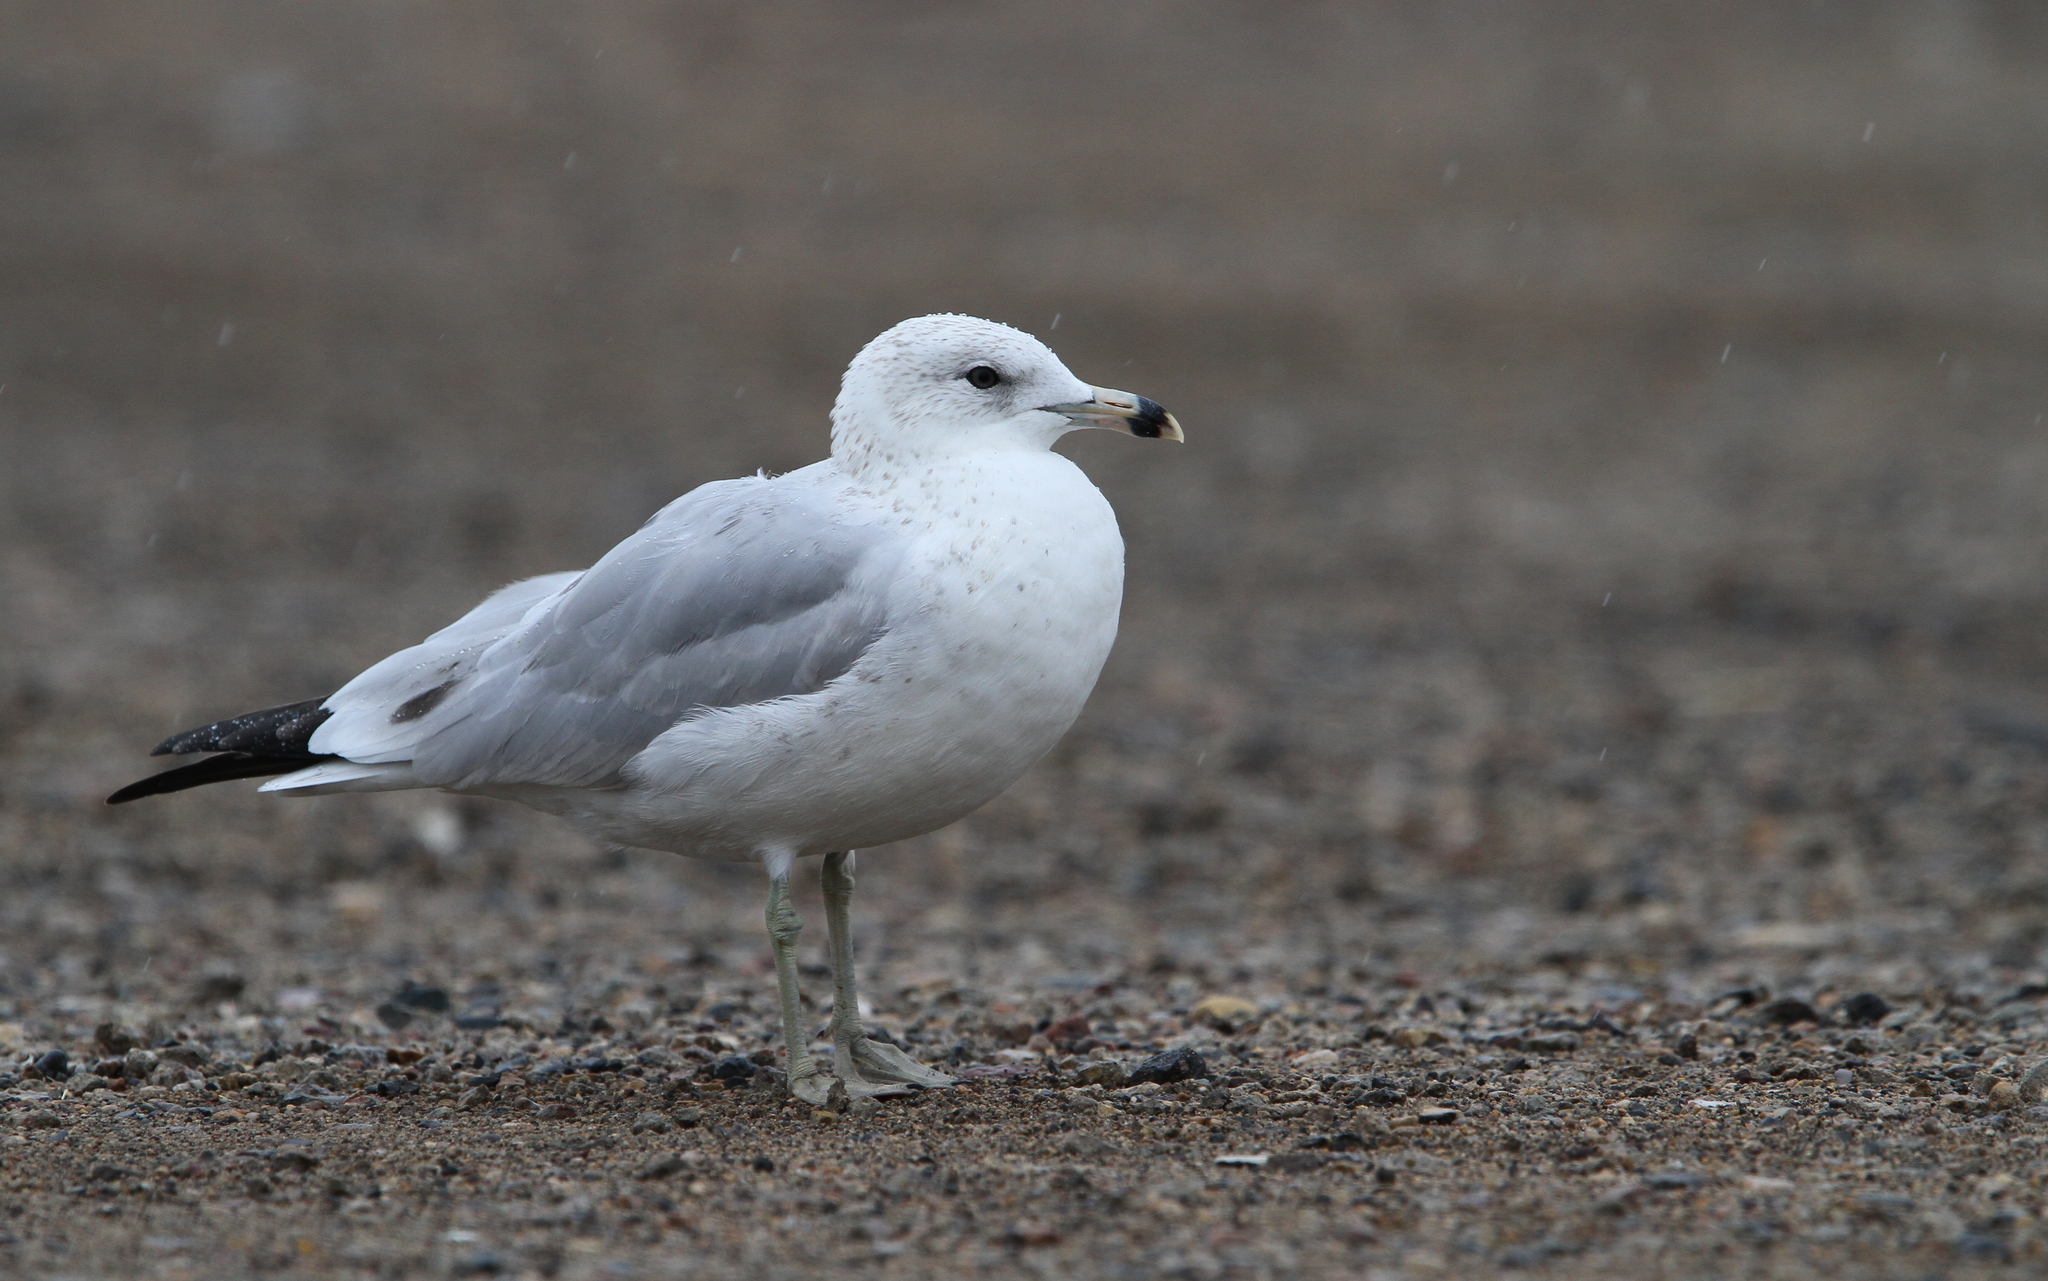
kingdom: Animalia
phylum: Chordata
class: Aves
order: Charadriiformes
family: Laridae
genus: Larus
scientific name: Larus delawarensis
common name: Ring-billed gull
